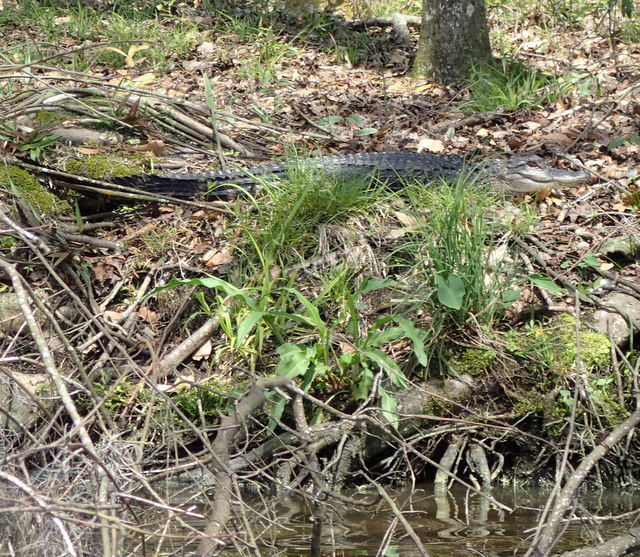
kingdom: Animalia
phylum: Chordata
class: Crocodylia
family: Alligatoridae
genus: Alligator
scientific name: Alligator mississippiensis
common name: American alligator
